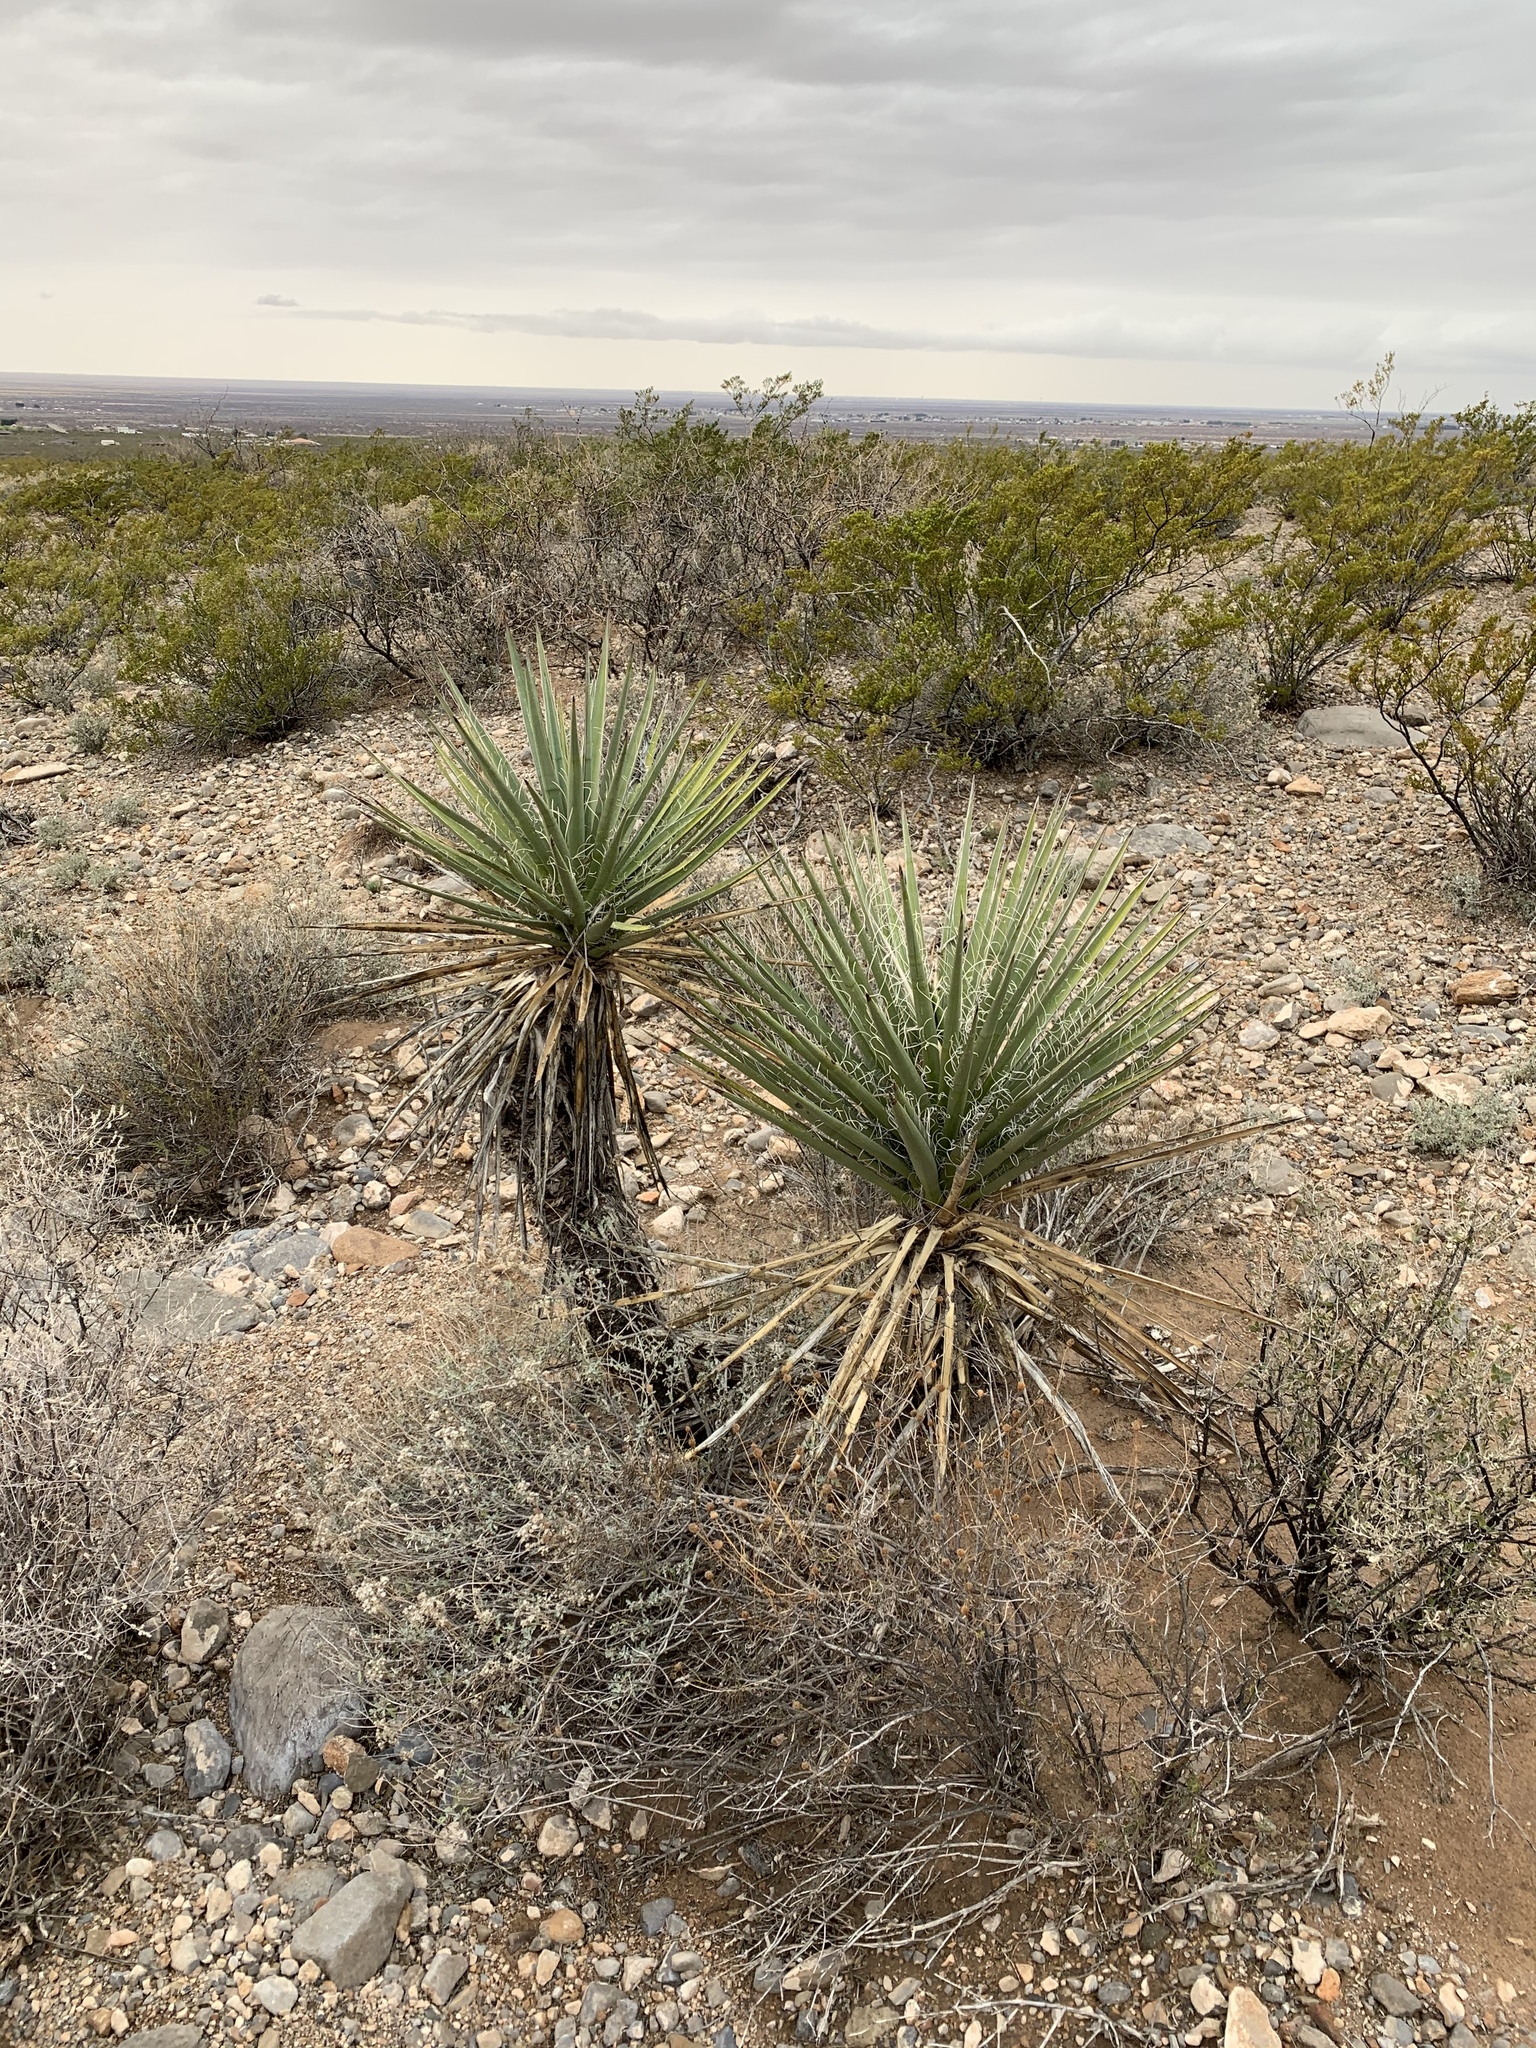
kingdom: Plantae
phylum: Tracheophyta
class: Liliopsida
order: Asparagales
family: Asparagaceae
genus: Yucca
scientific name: Yucca treculiana
